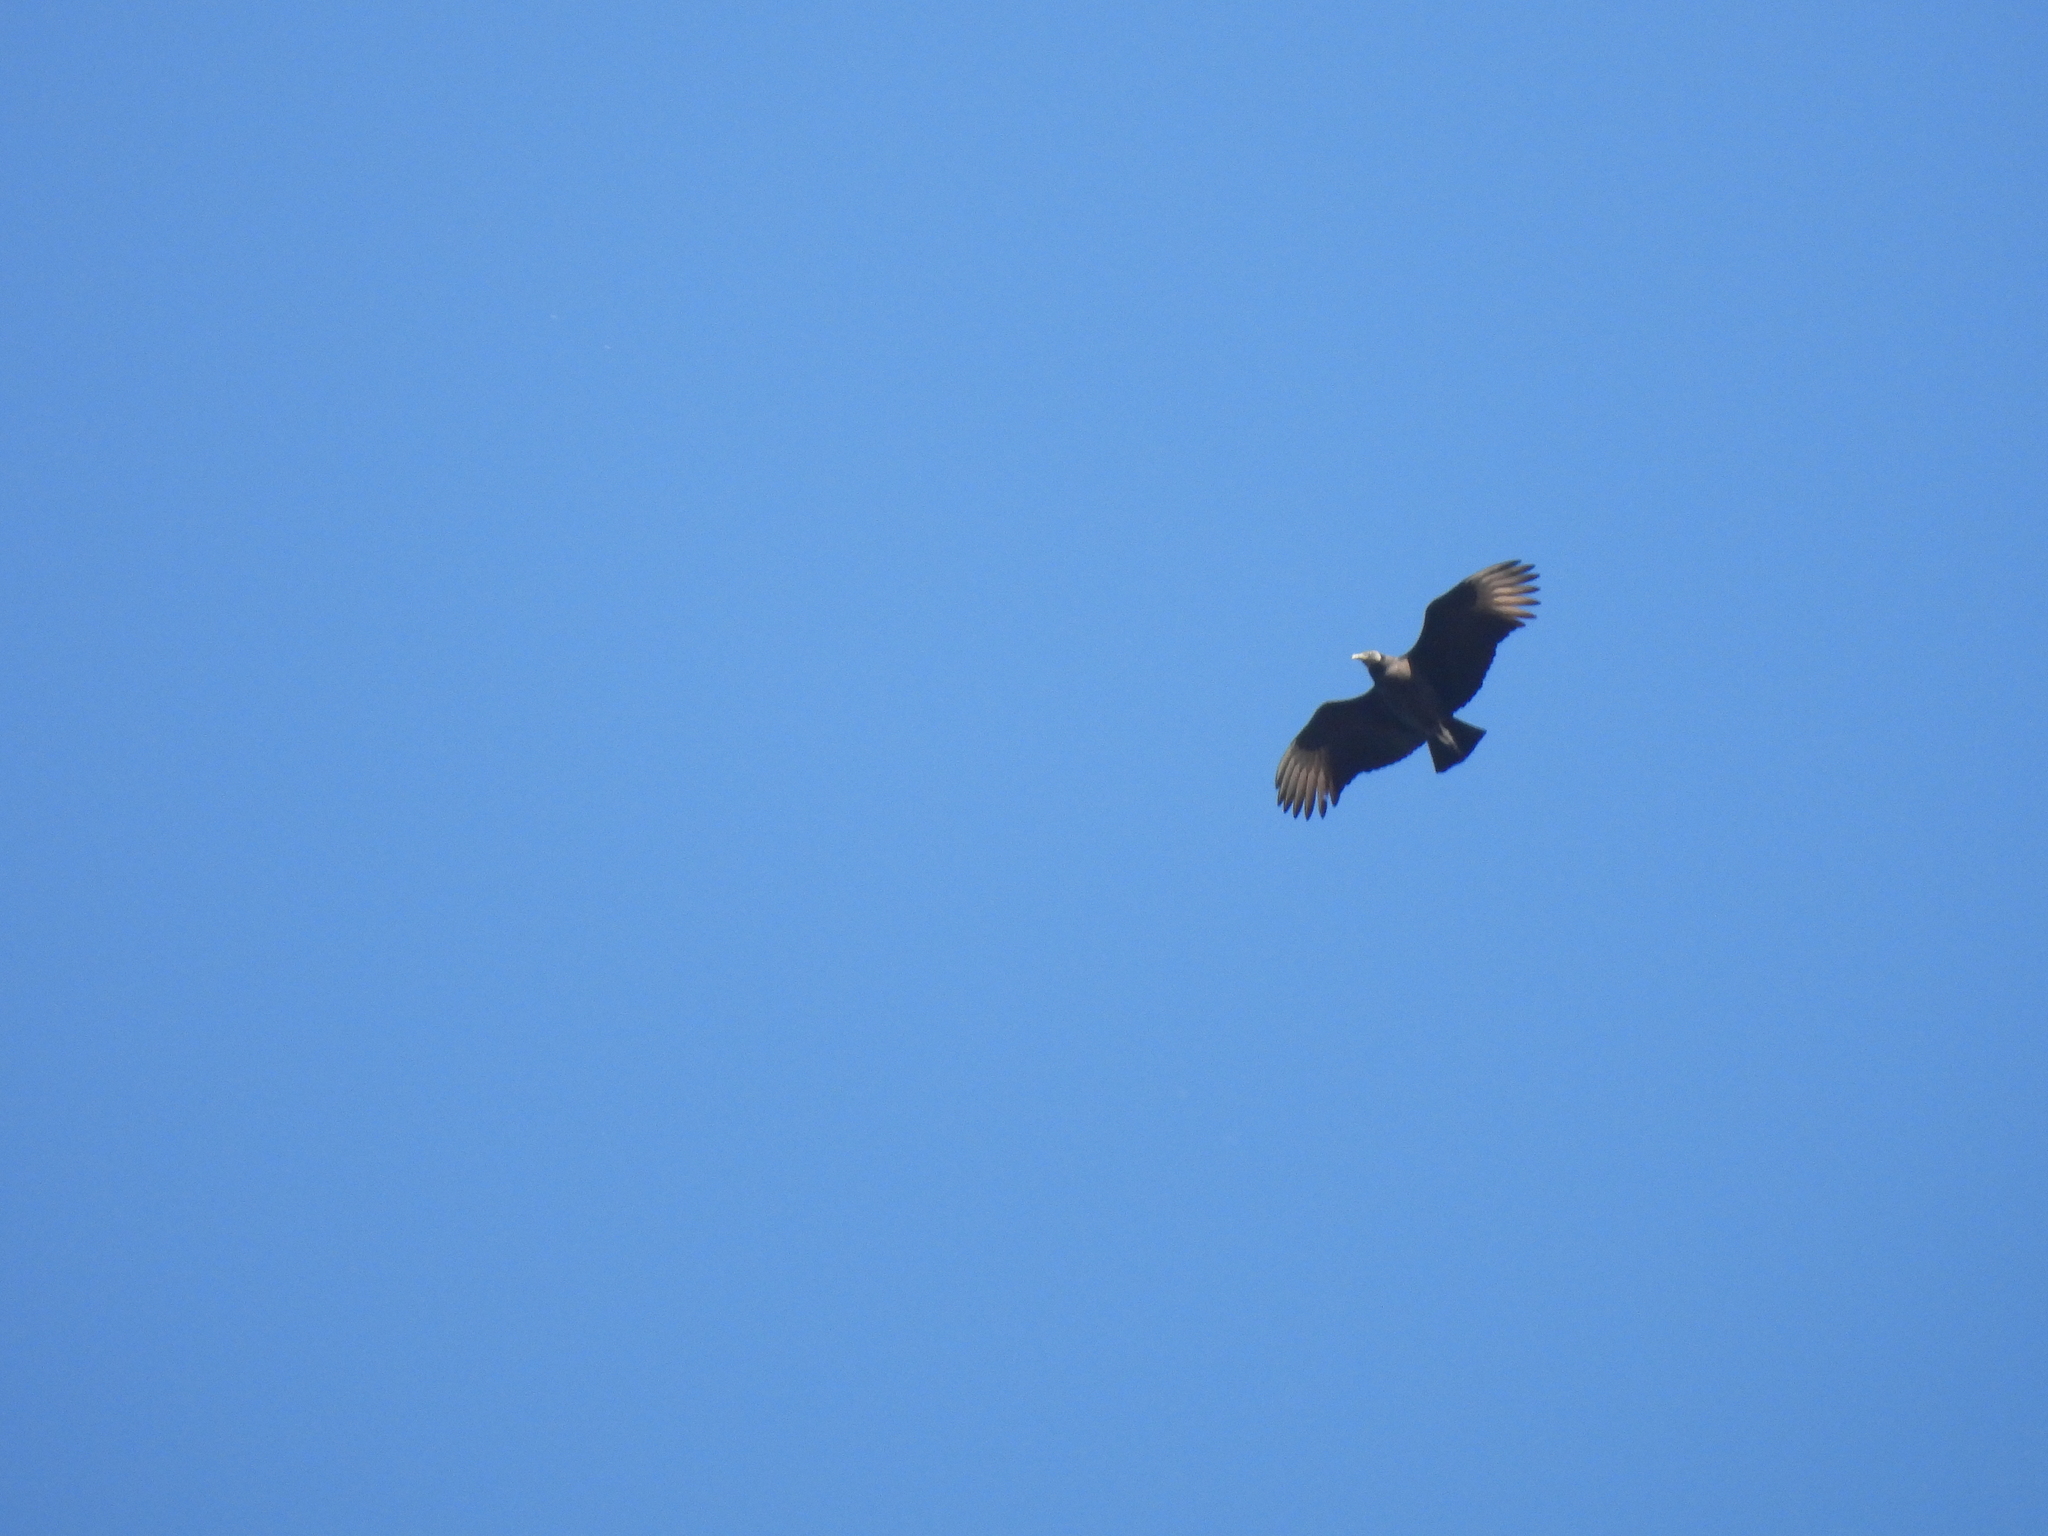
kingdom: Animalia
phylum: Chordata
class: Aves
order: Accipitriformes
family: Cathartidae
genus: Coragyps
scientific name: Coragyps atratus
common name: Black vulture
